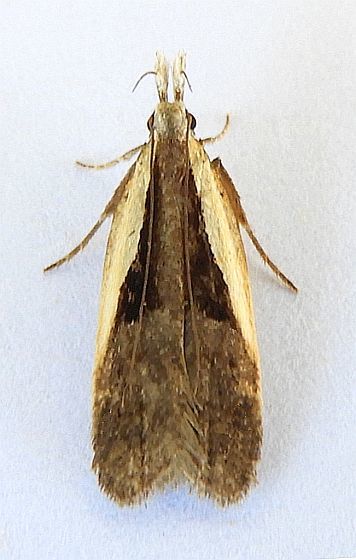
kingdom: Animalia
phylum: Arthropoda
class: Insecta
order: Lepidoptera
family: Gelechiidae
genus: Dichomeris
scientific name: Dichomeris mulsa
